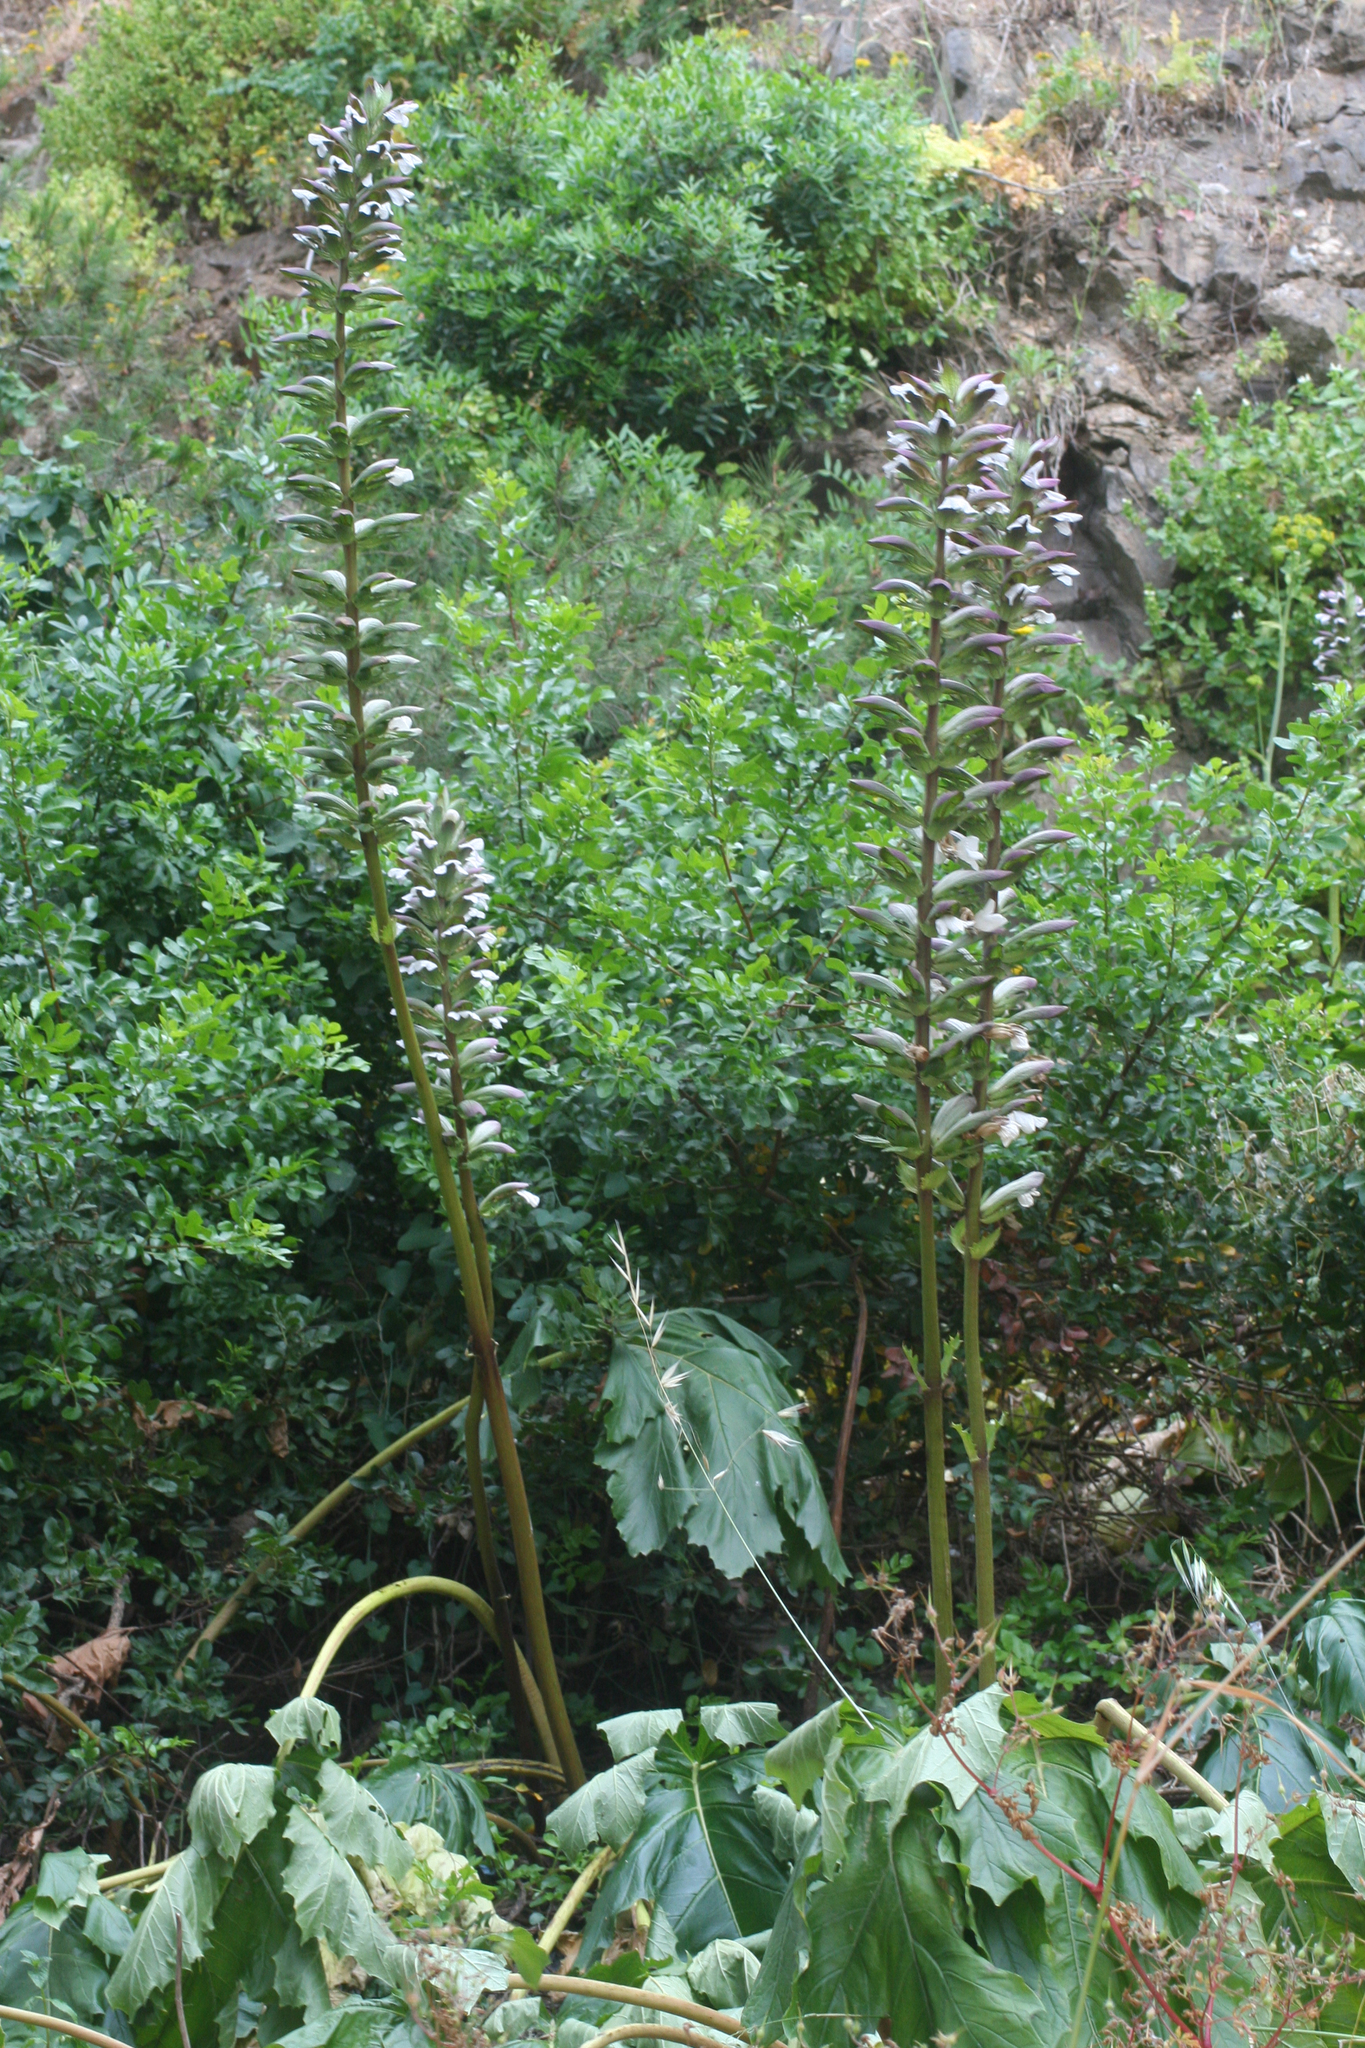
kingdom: Plantae
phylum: Tracheophyta
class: Magnoliopsida
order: Lamiales
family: Acanthaceae
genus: Acanthus
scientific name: Acanthus mollis
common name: Bear's-breech
